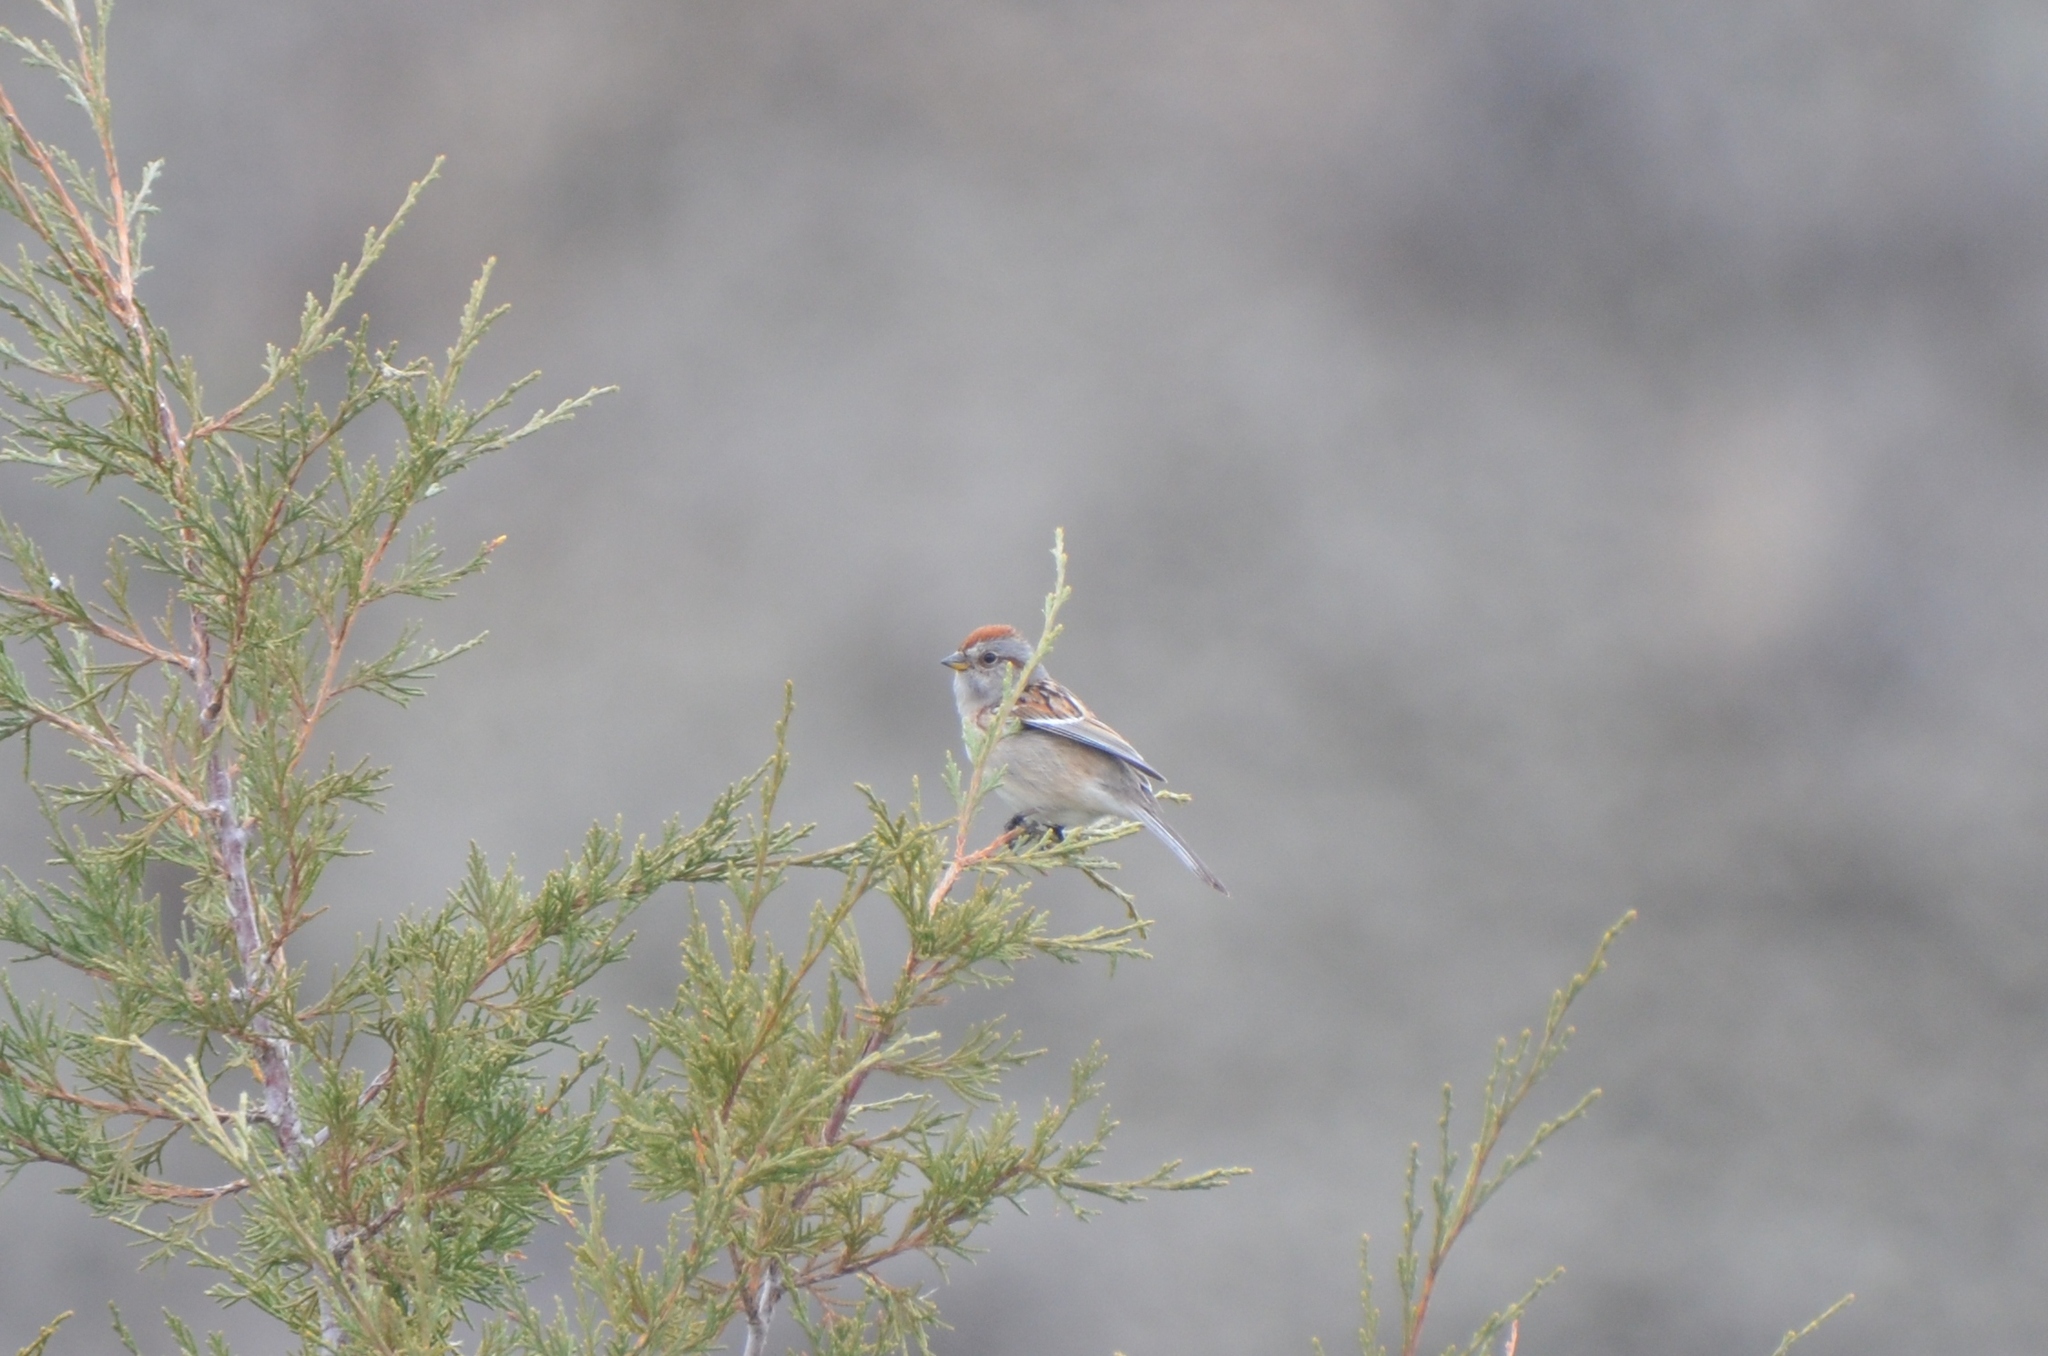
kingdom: Animalia
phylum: Chordata
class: Aves
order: Passeriformes
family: Passerellidae
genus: Spizelloides
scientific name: Spizelloides arborea
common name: American tree sparrow
